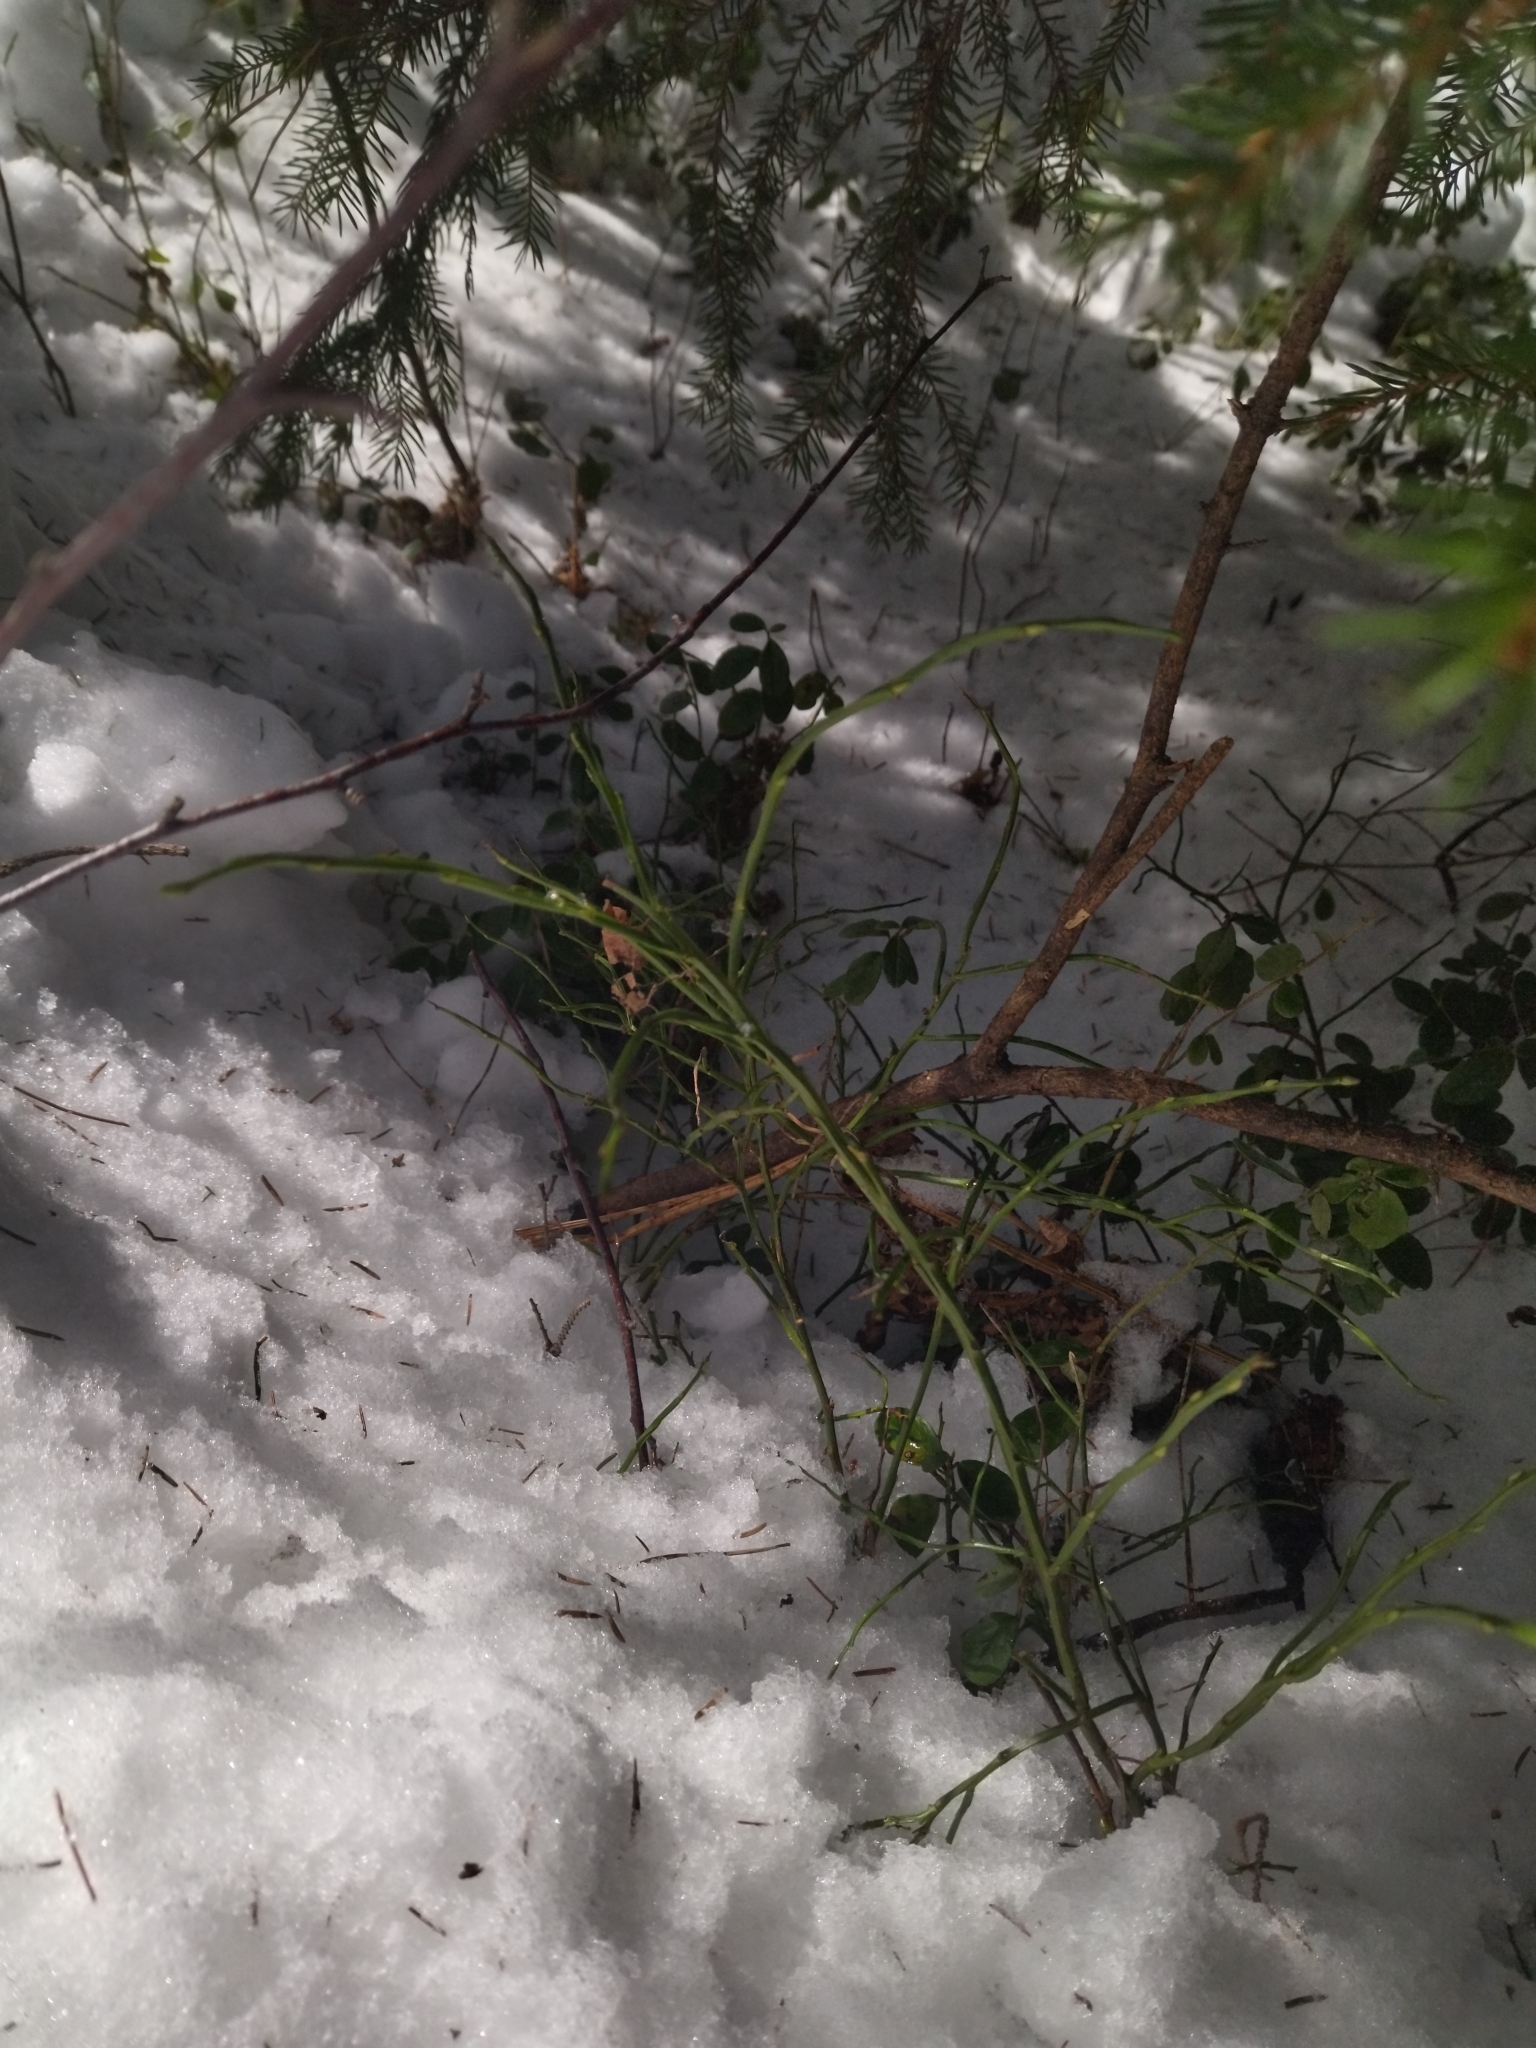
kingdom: Plantae
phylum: Tracheophyta
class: Magnoliopsida
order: Ericales
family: Ericaceae
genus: Vaccinium
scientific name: Vaccinium myrtillus
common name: Bilberry
